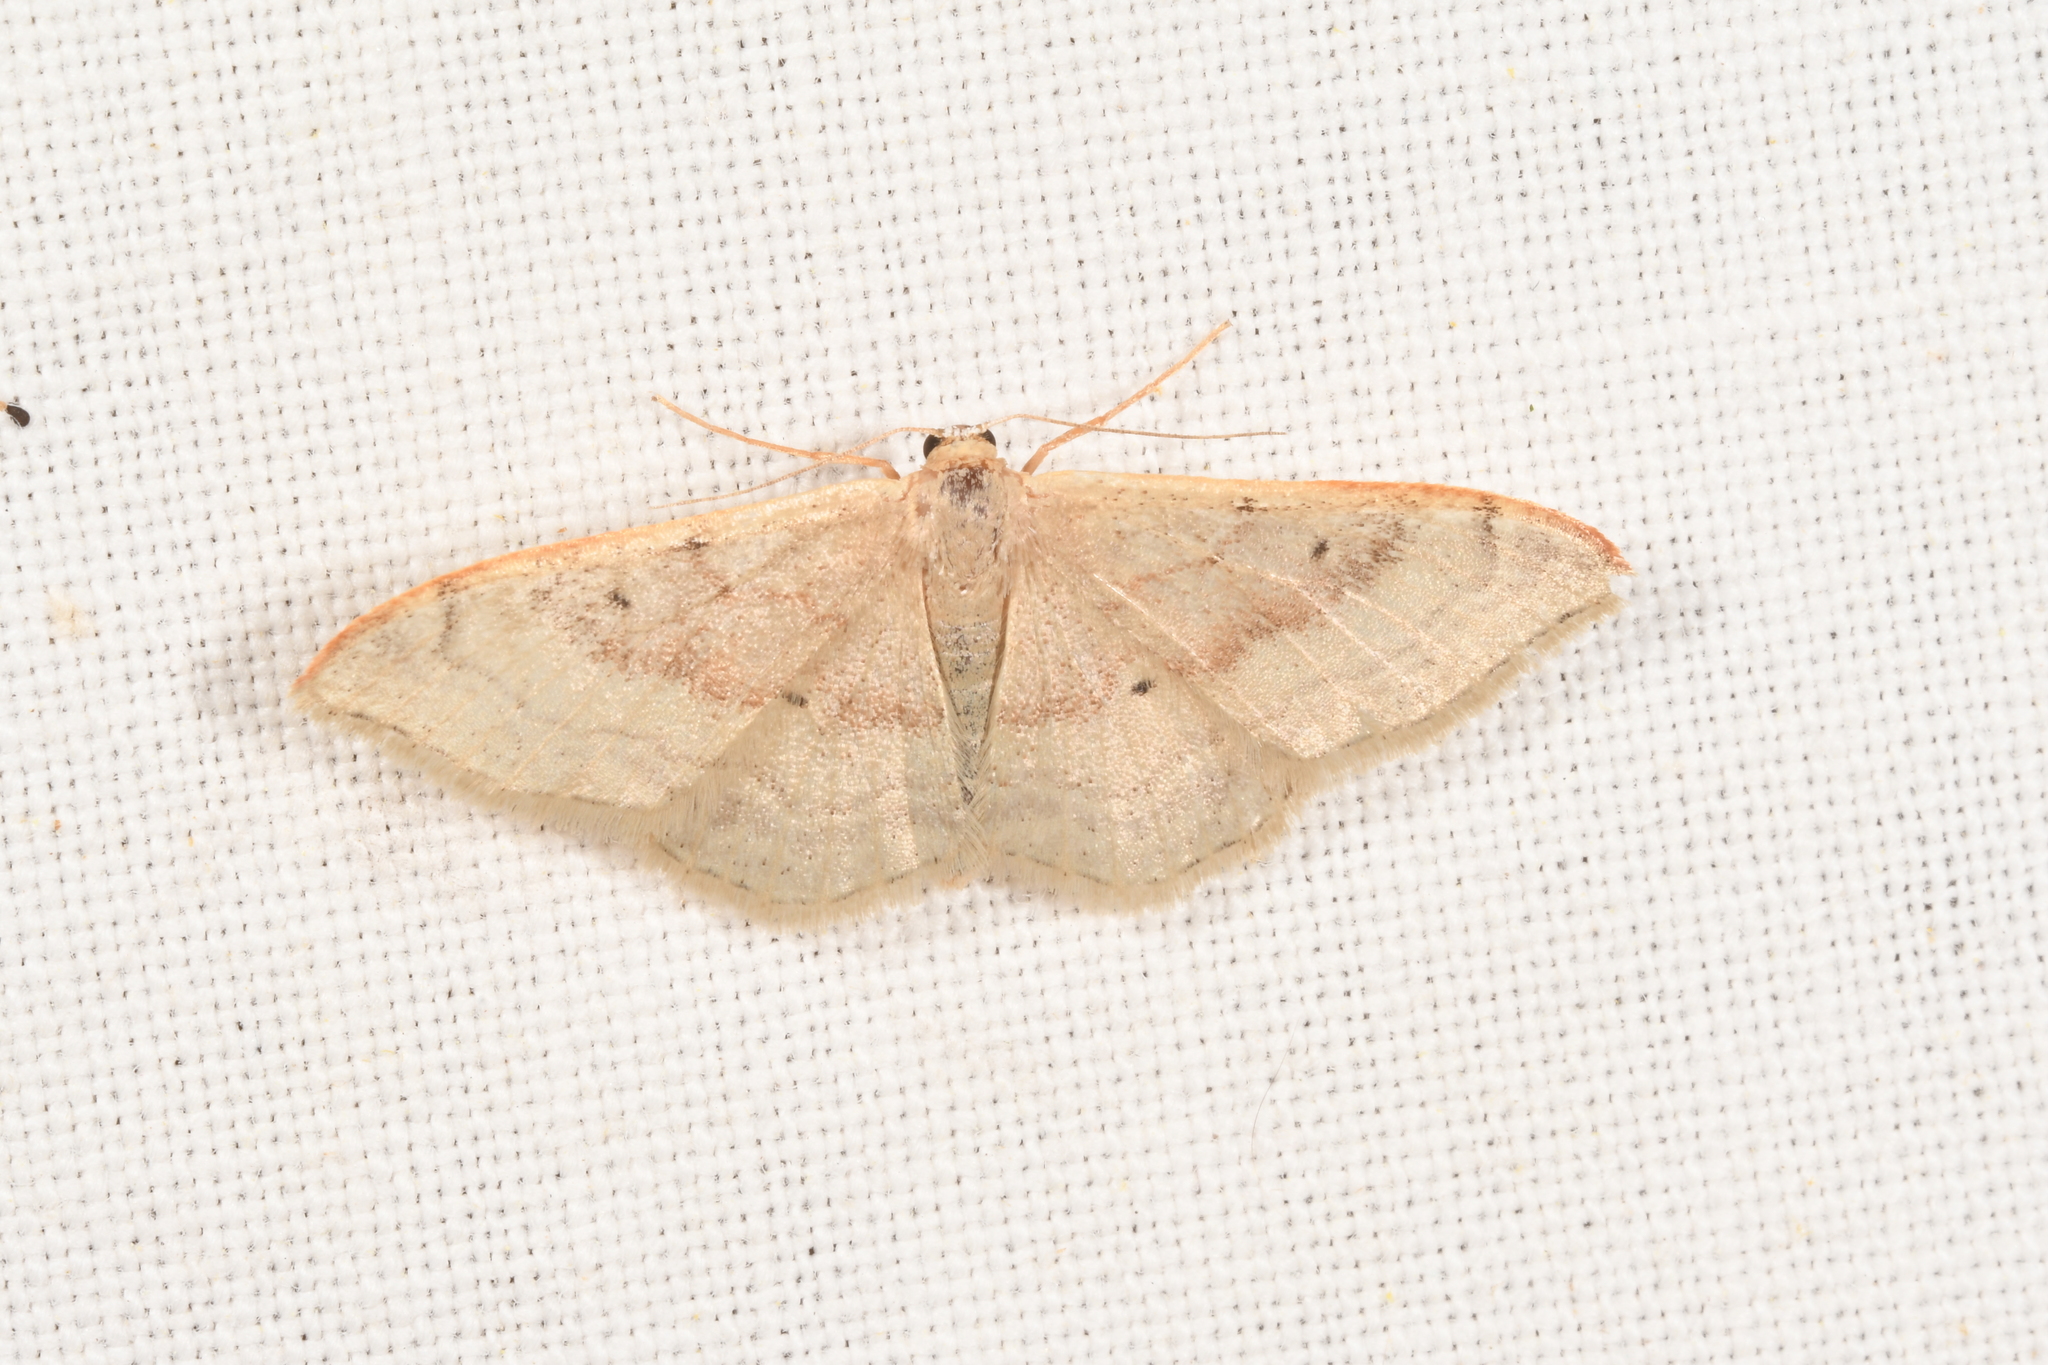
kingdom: Animalia
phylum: Arthropoda
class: Insecta
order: Lepidoptera
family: Geometridae
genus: Idaea
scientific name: Idaea degeneraria
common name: Portland ribbon wave
